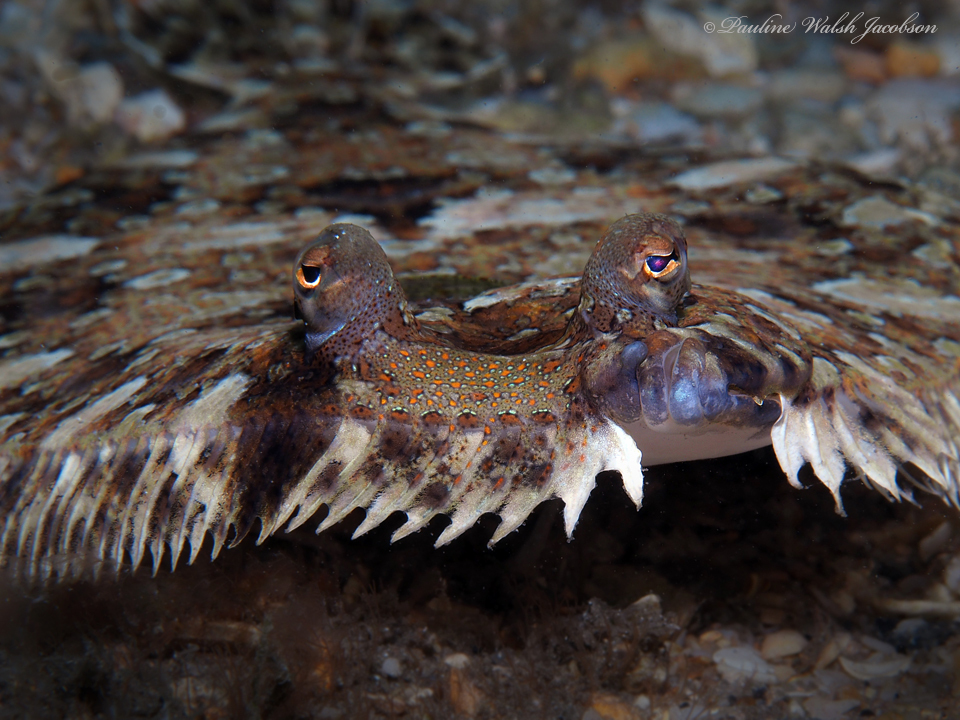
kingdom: Animalia
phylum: Chordata
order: Pleuronectiformes
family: Bothidae
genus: Bothus
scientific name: Bothus ocellatus
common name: Eyed flounder
